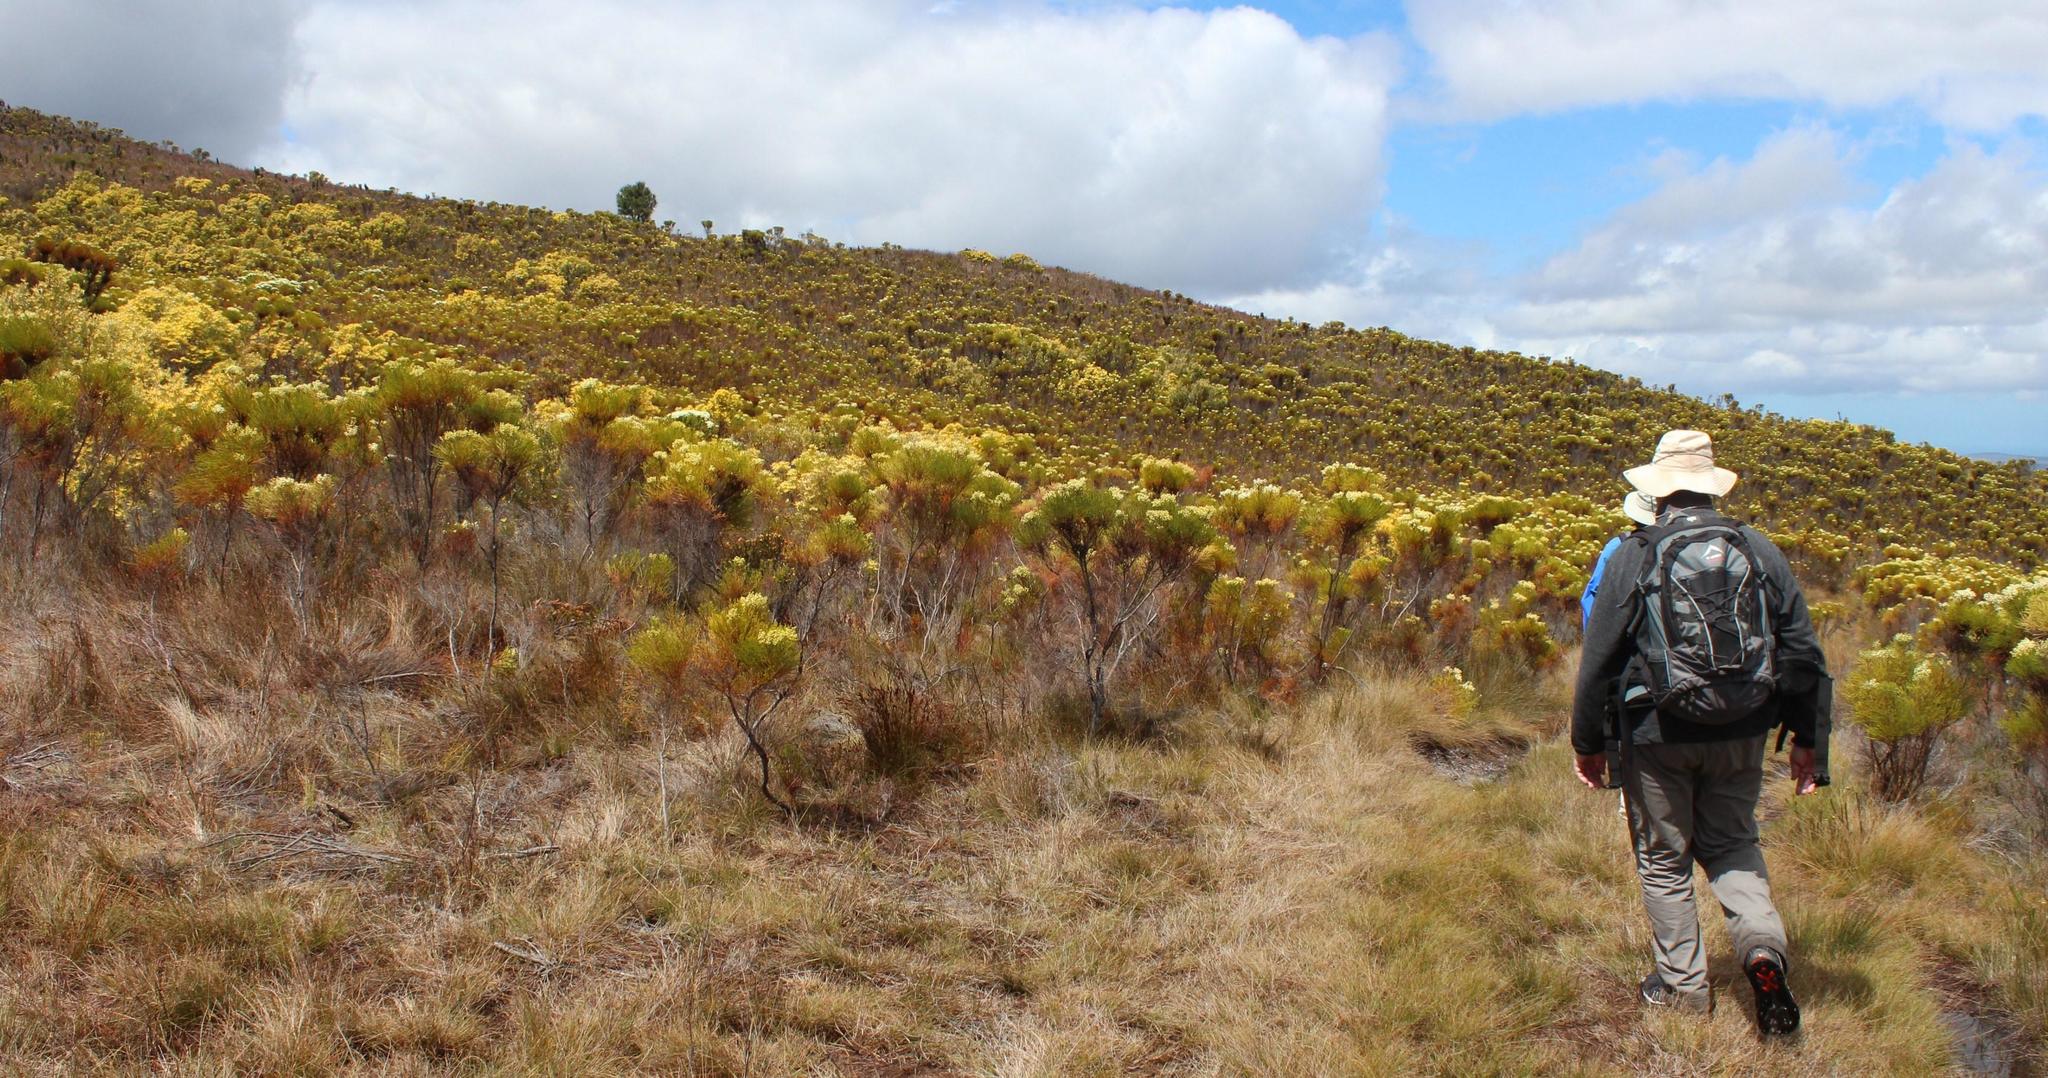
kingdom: Plantae
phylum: Tracheophyta
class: Magnoliopsida
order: Bruniales
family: Bruniaceae
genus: Berzelia
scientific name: Berzelia lanuginosa
